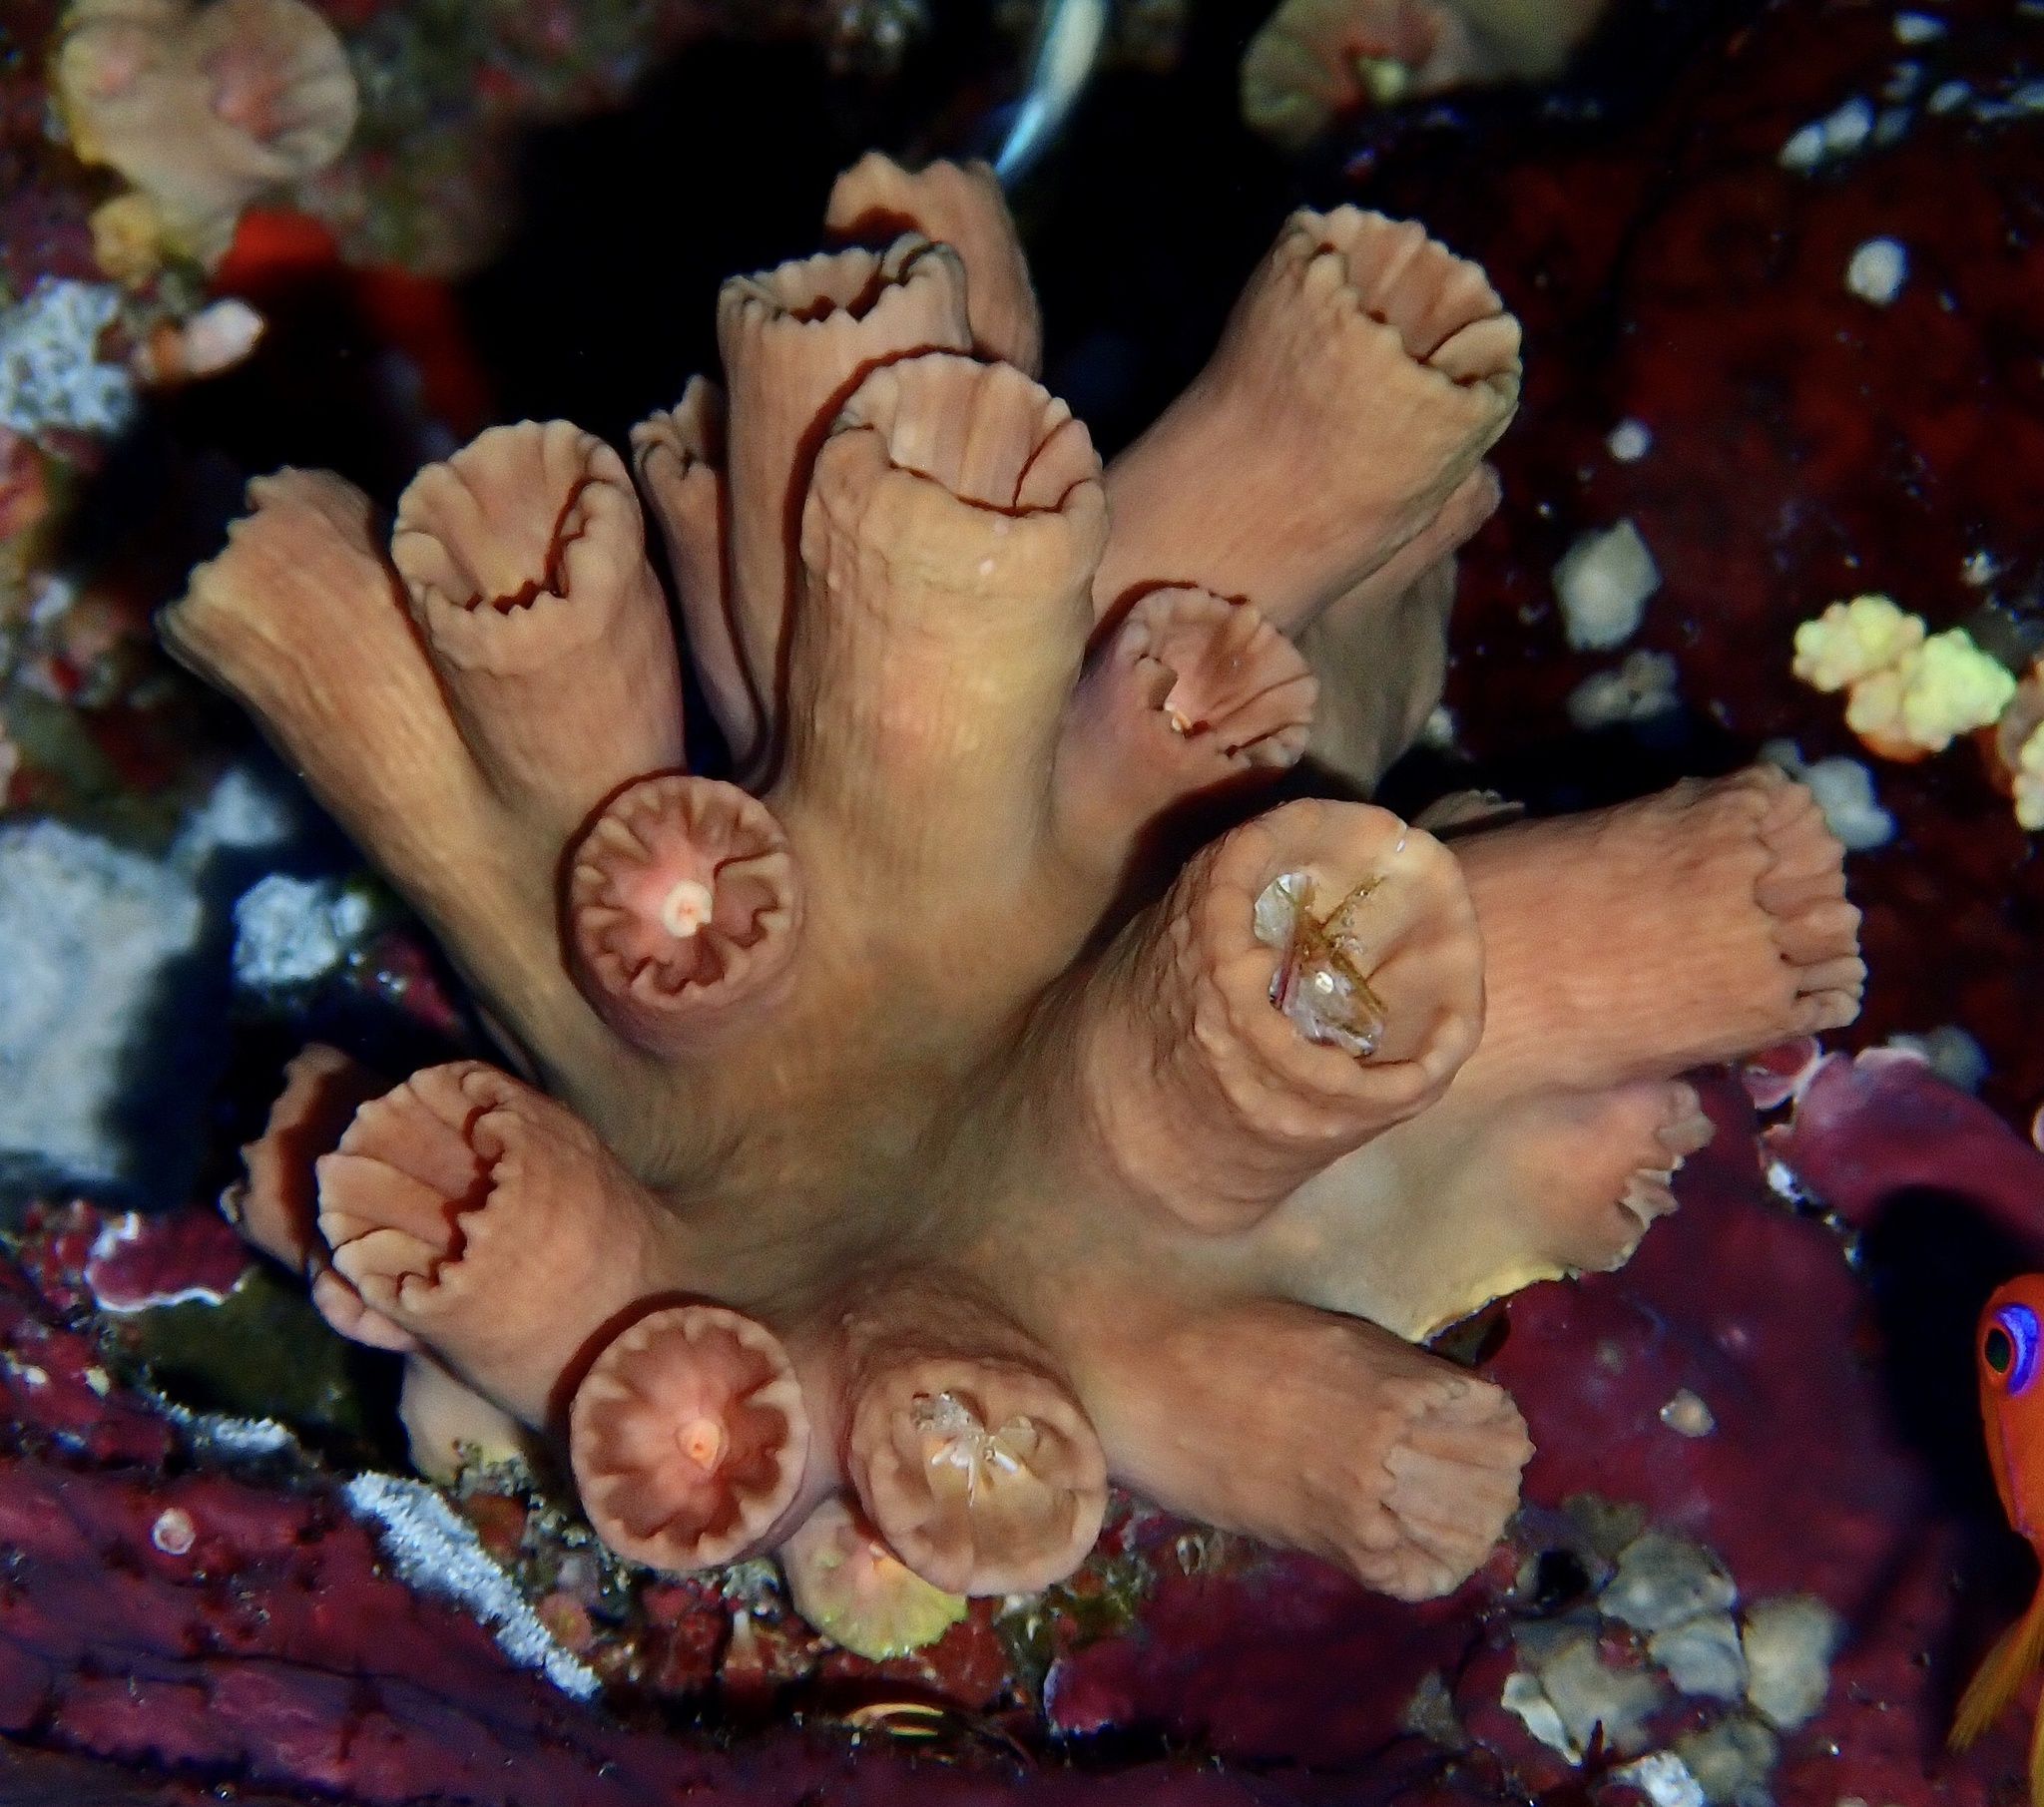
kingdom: Animalia
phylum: Cnidaria
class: Anthozoa
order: Scleractinia
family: Dendrophylliidae
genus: Cladopsammia
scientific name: Cladopsammia gracilis
